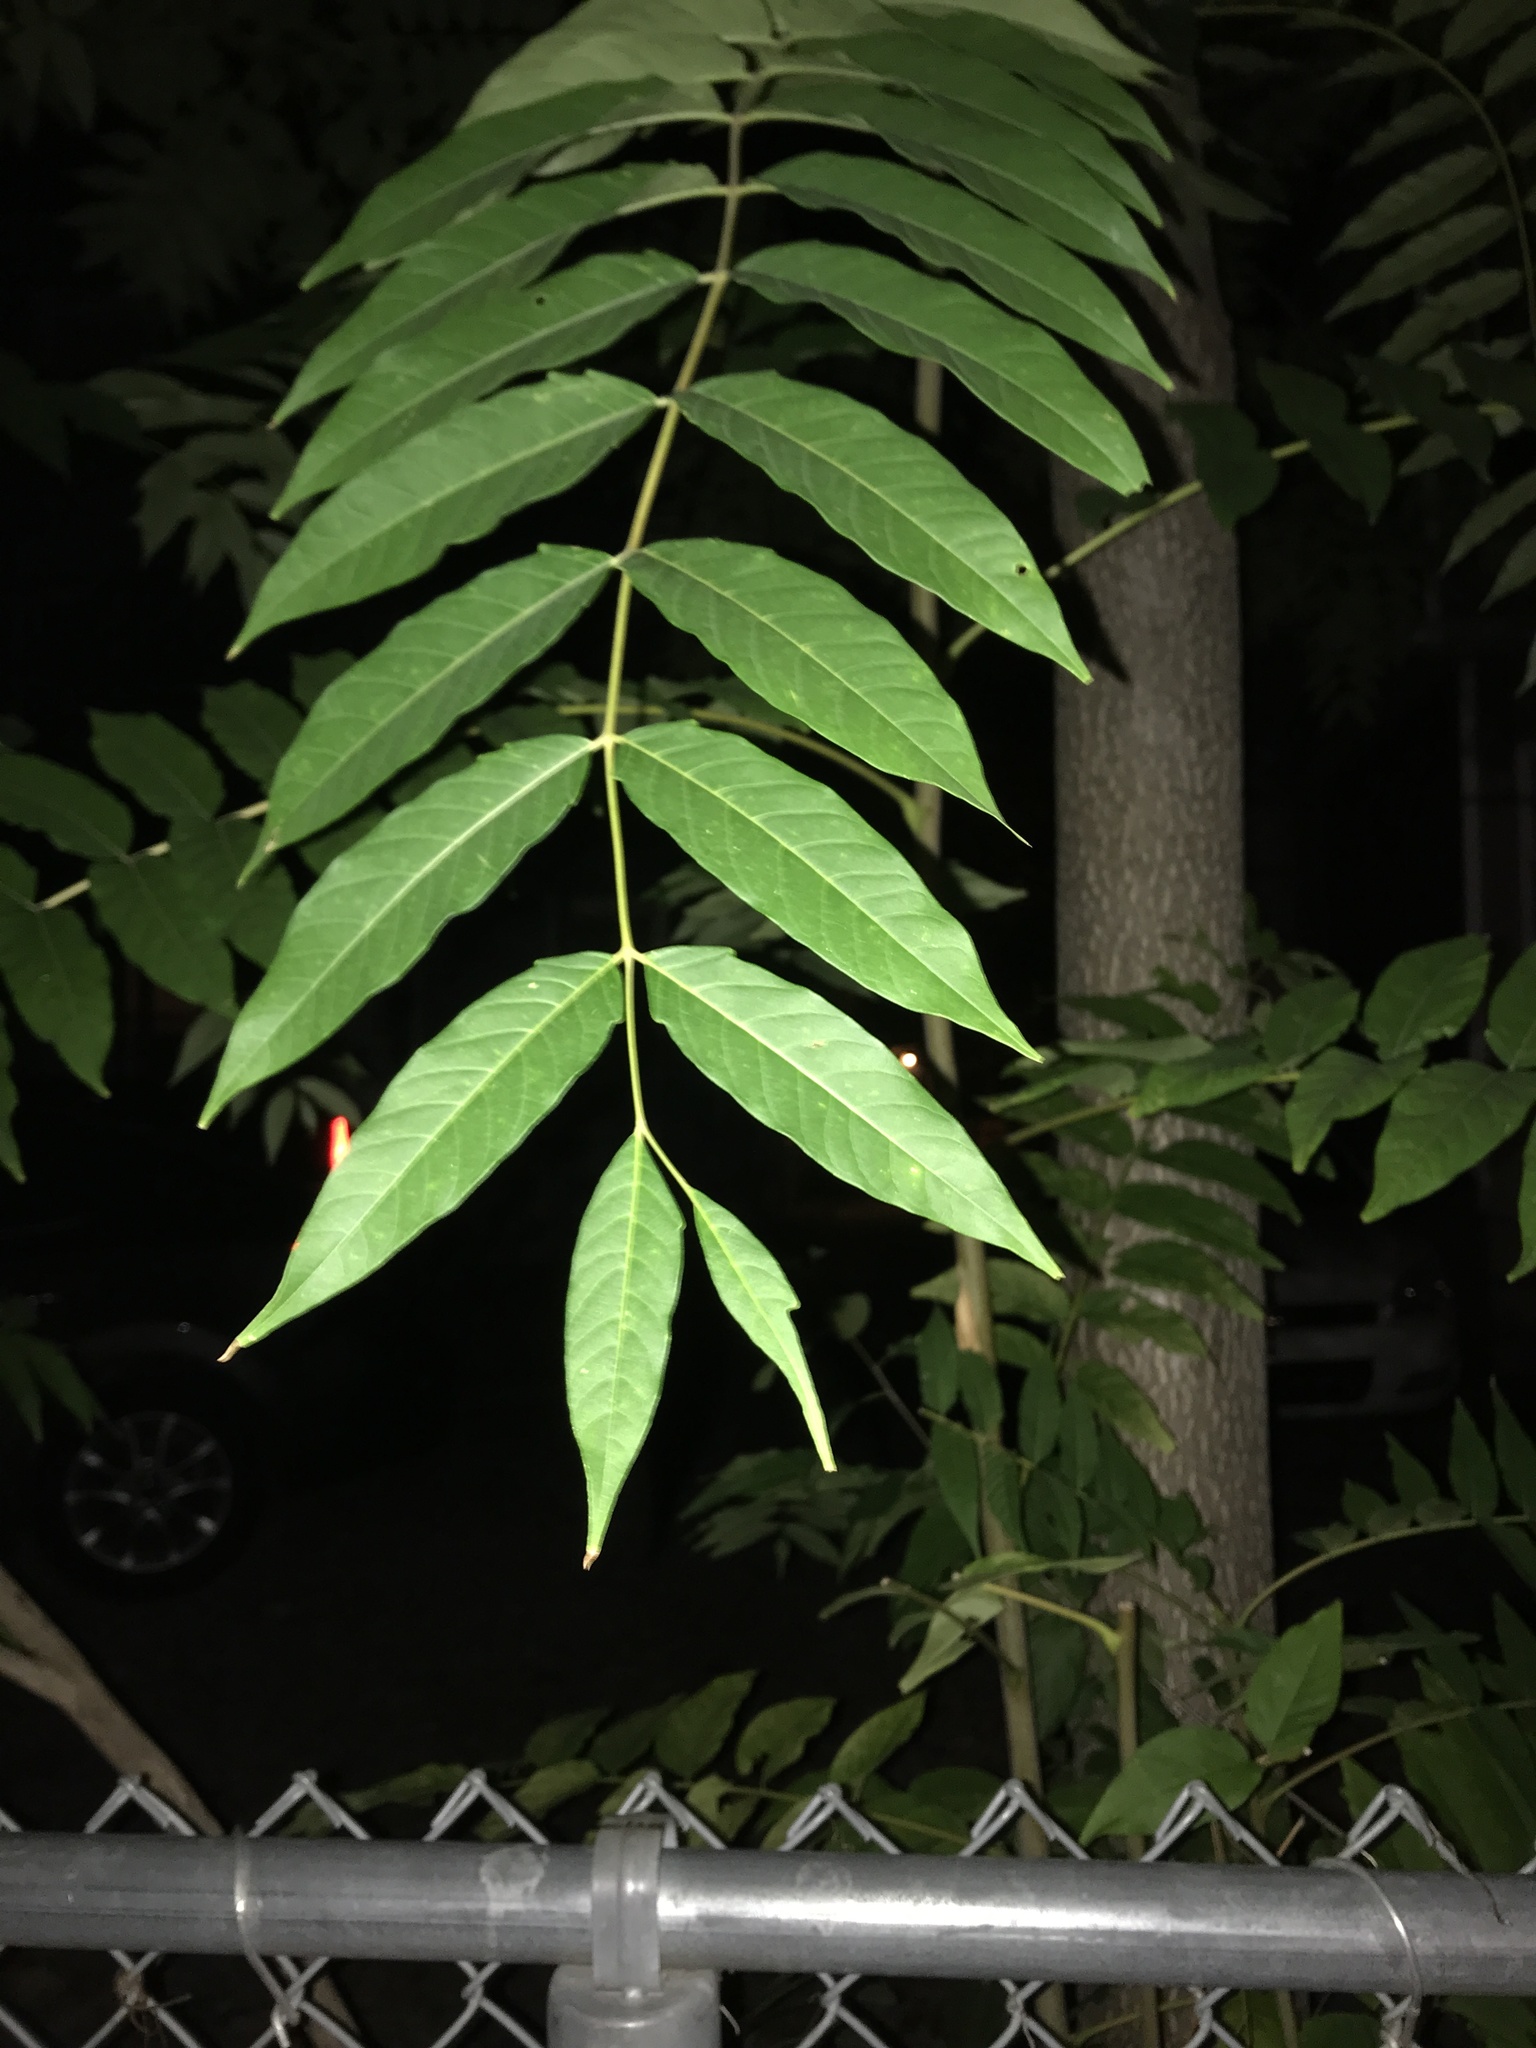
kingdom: Plantae
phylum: Tracheophyta
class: Magnoliopsida
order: Sapindales
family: Simaroubaceae
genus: Ailanthus
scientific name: Ailanthus altissima
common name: Tree-of-heaven
